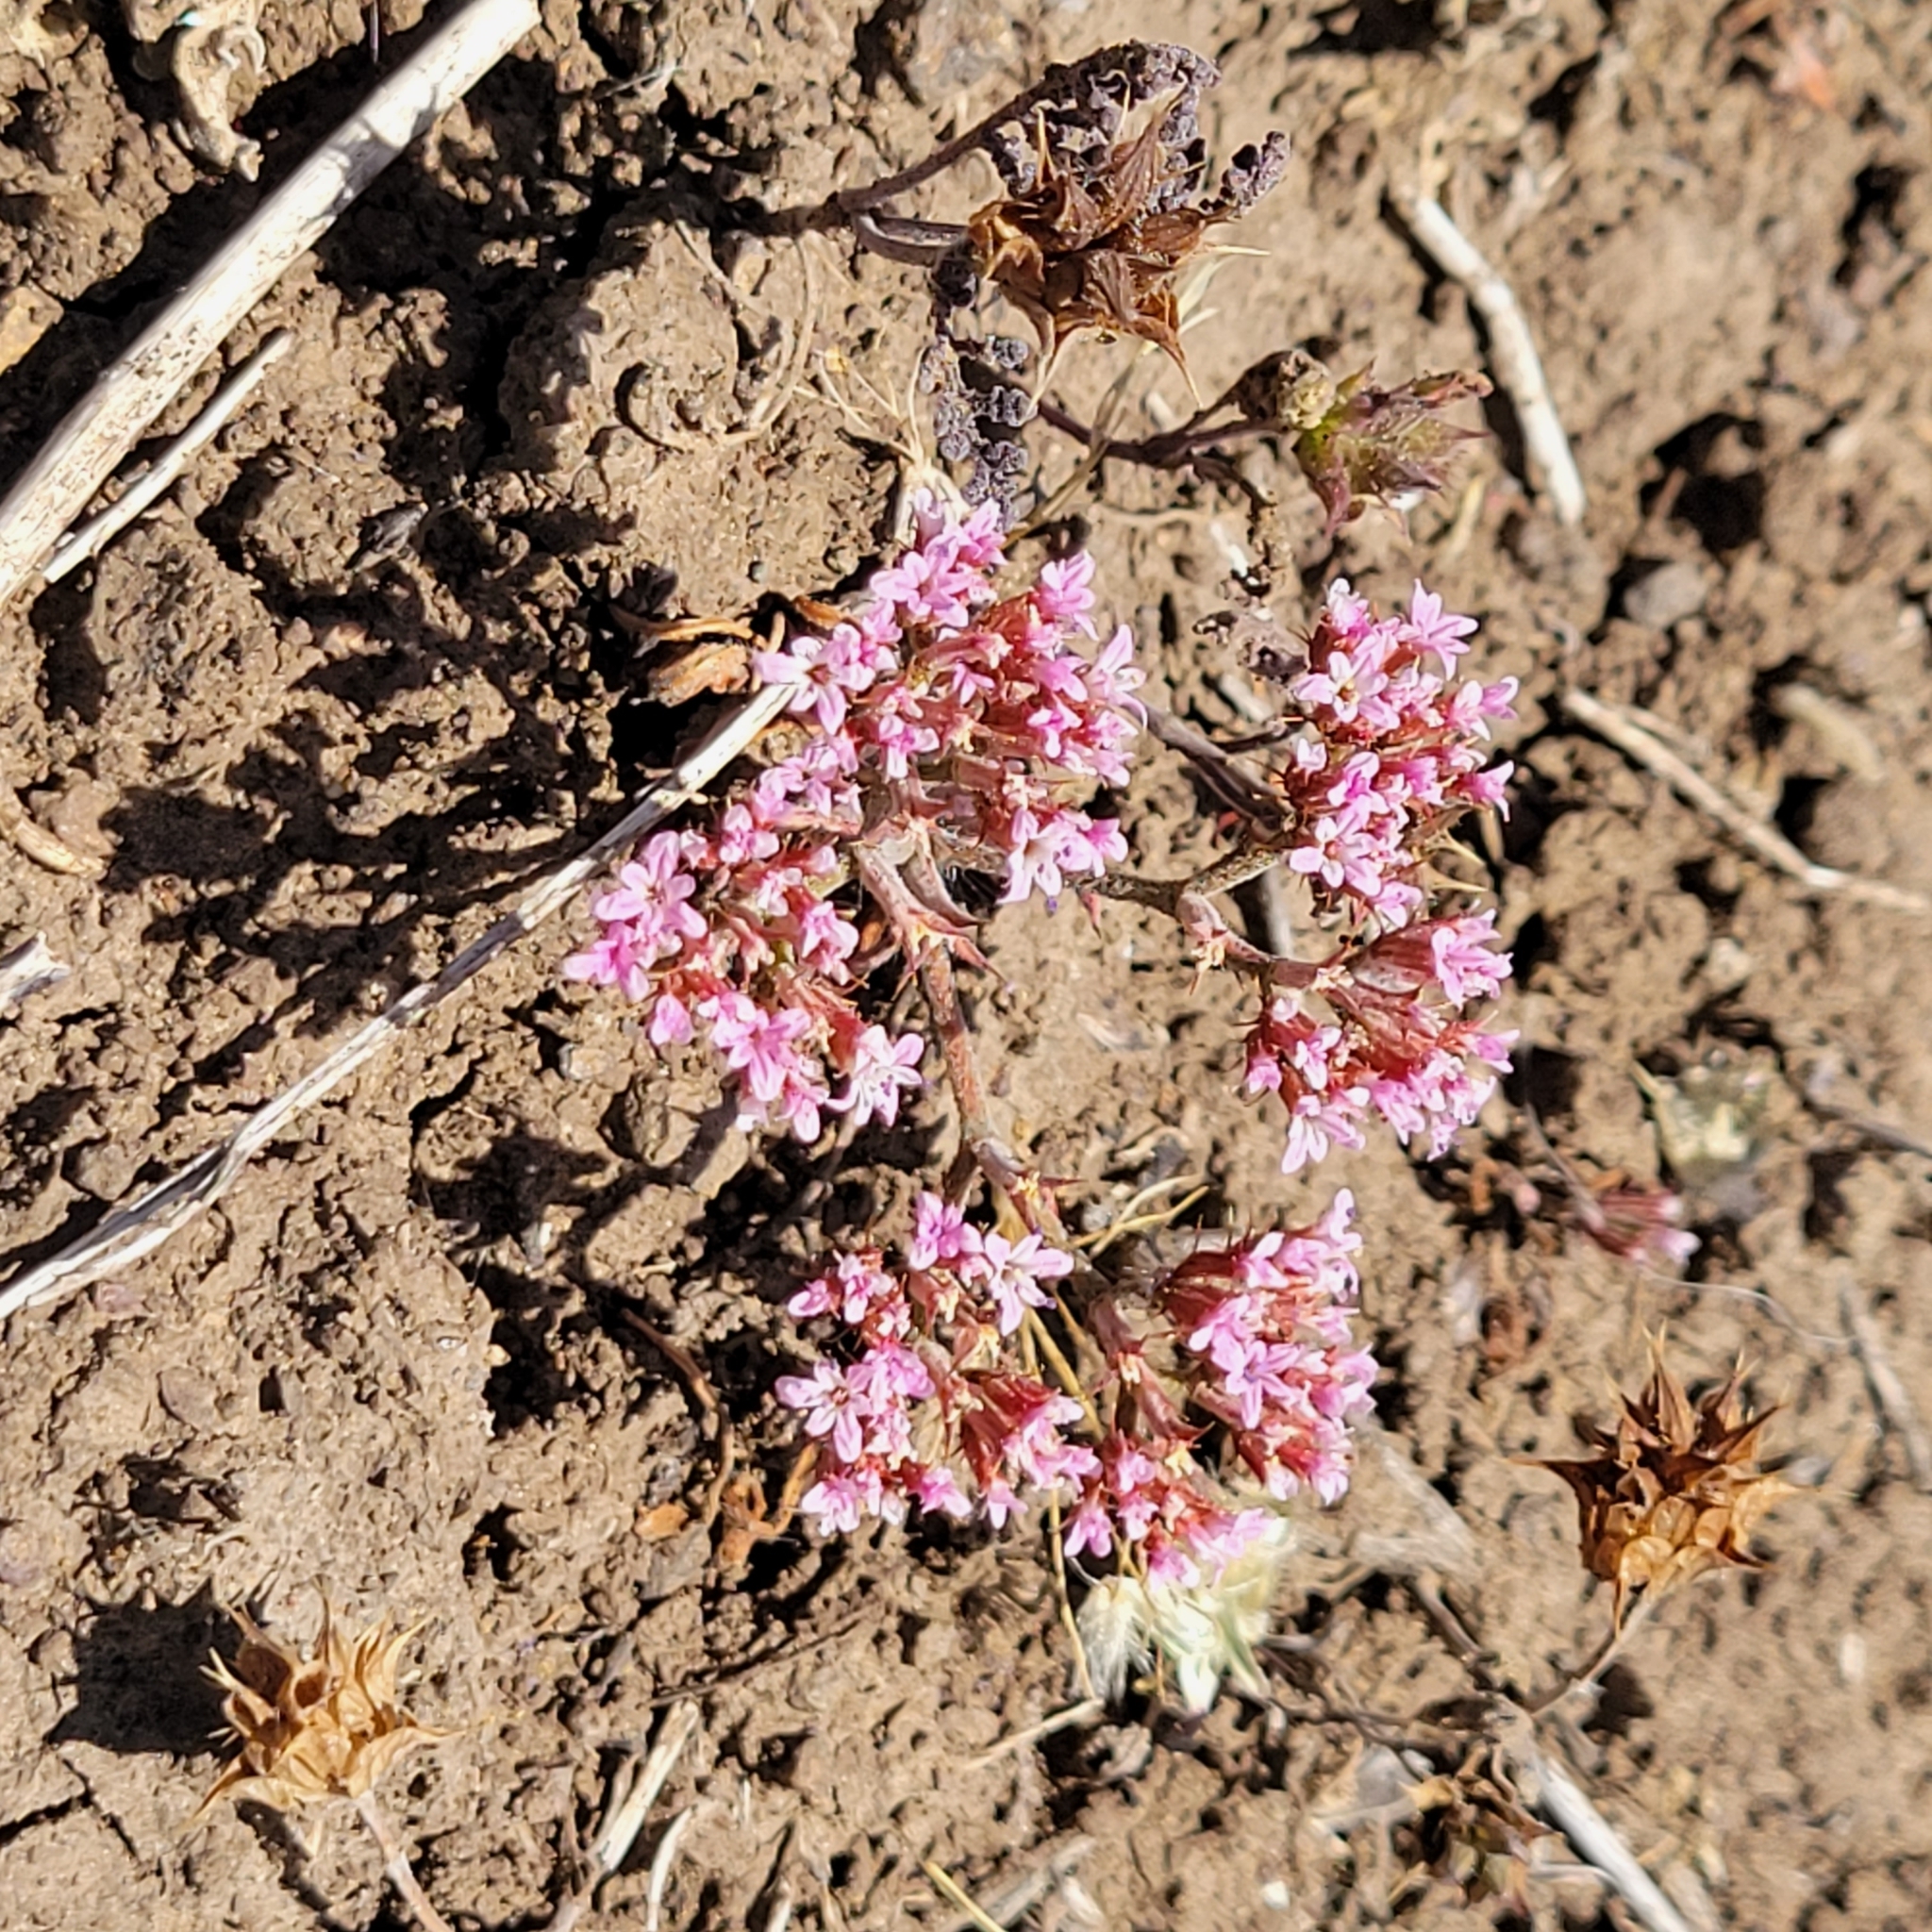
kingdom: Plantae
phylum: Tracheophyta
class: Magnoliopsida
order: Caryophyllales
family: Polygonaceae
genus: Chorizanthe
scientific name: Chorizanthe staticoides
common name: Turkish rugging
